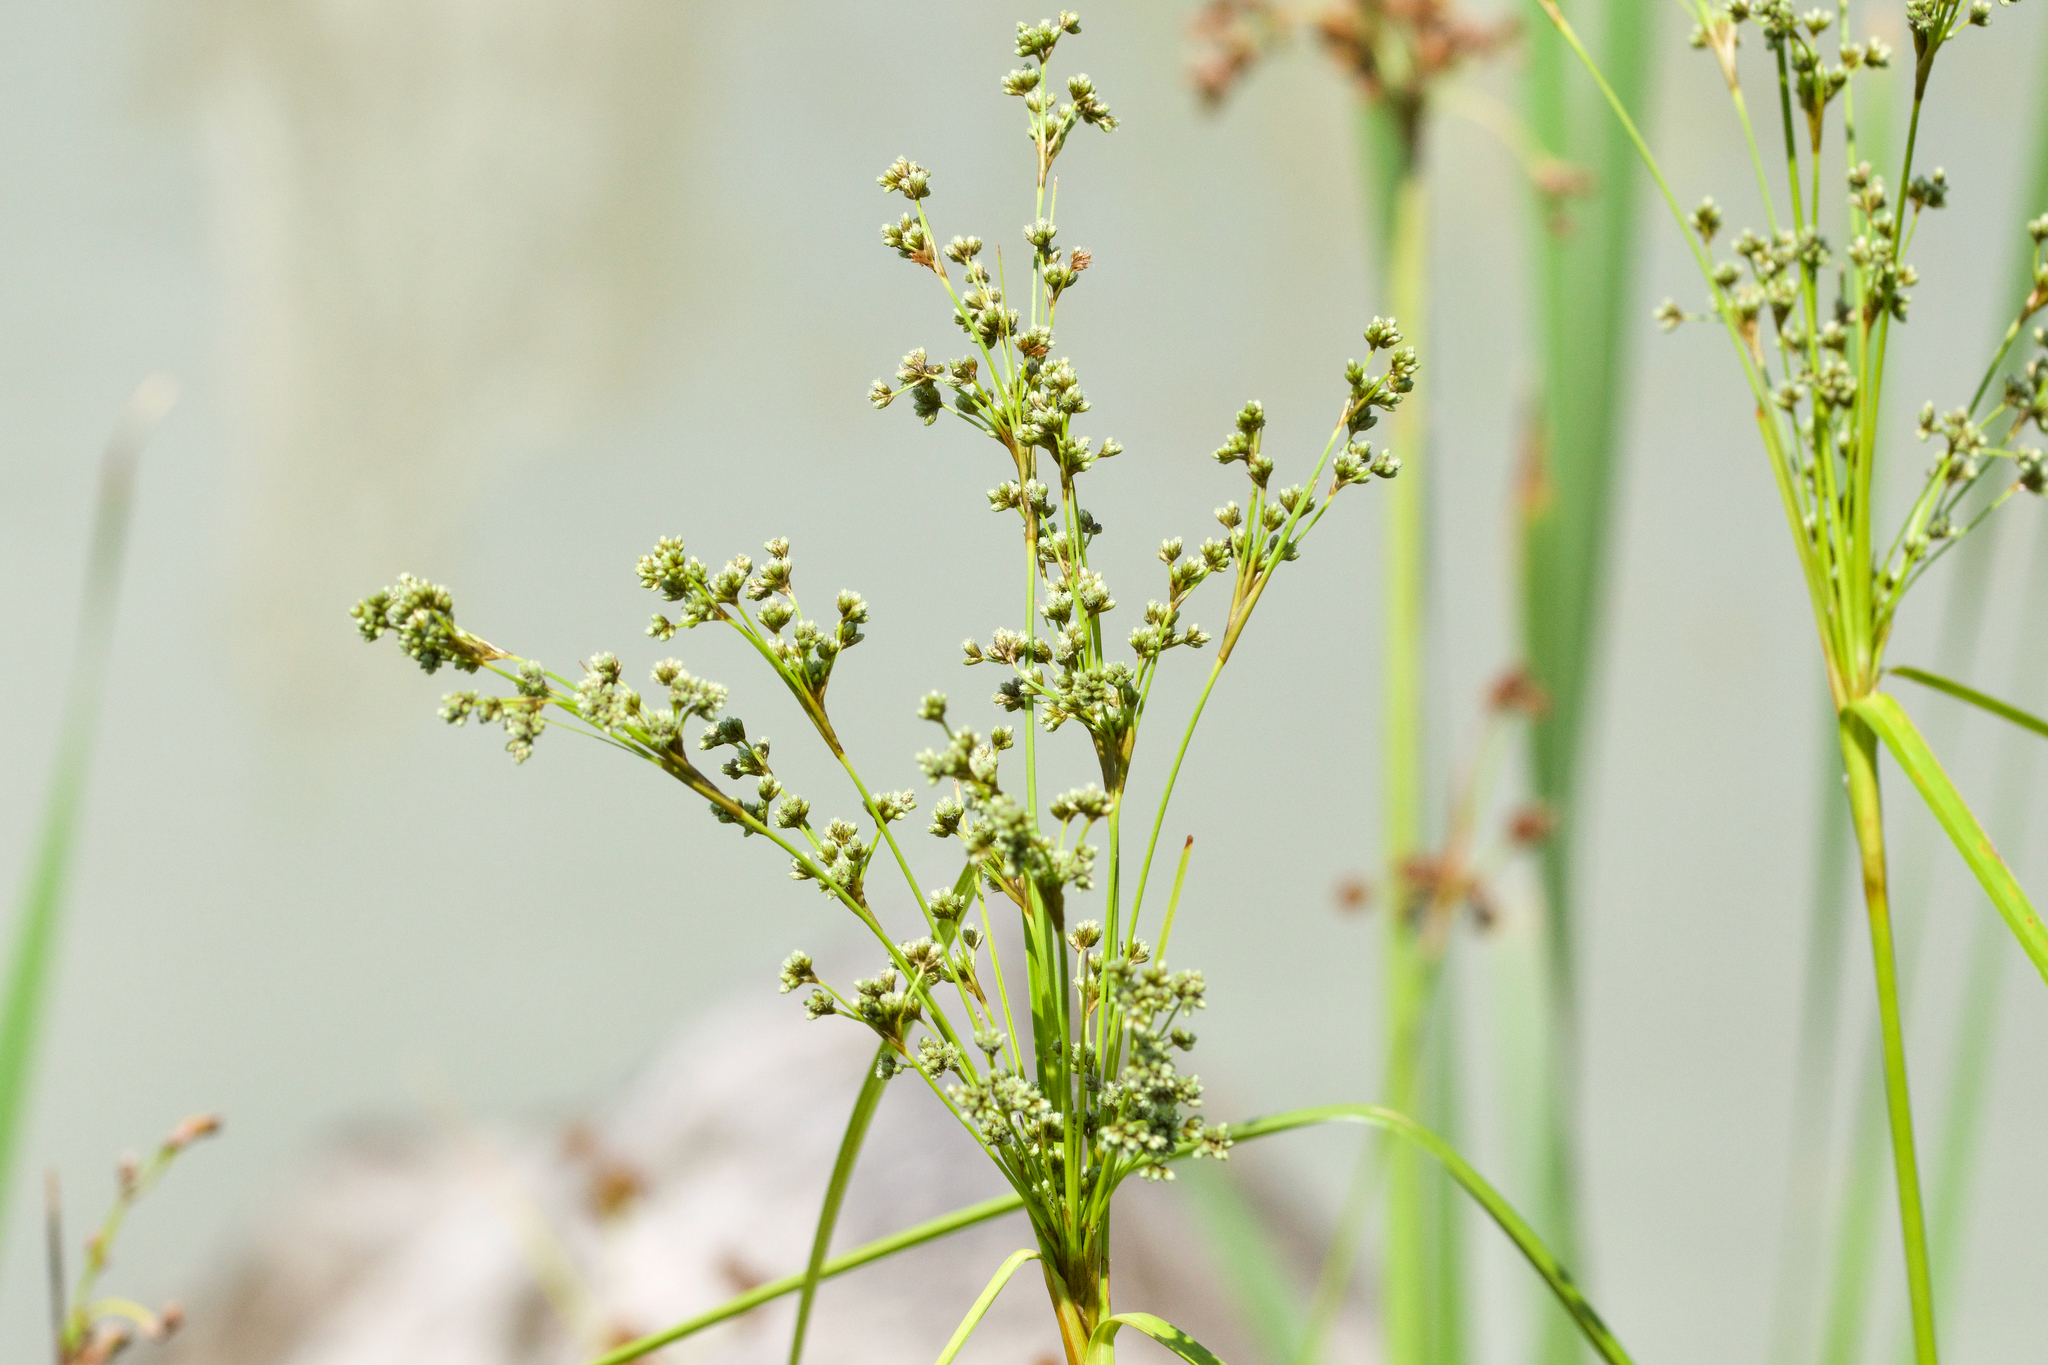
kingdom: Plantae
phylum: Tracheophyta
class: Liliopsida
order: Poales
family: Cyperaceae
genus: Scirpus
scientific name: Scirpus cyperinus
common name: Black-sheathed bulrush
